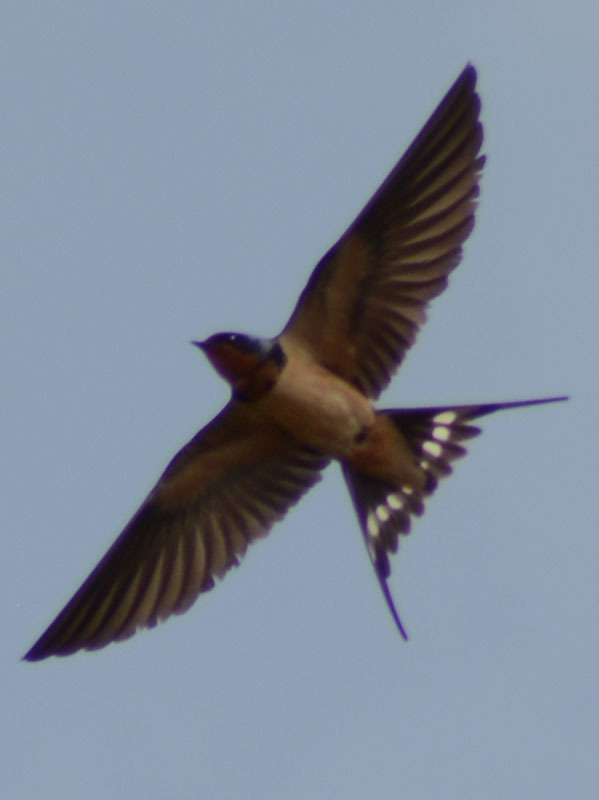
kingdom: Animalia
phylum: Chordata
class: Aves
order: Passeriformes
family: Hirundinidae
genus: Hirundo
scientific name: Hirundo rustica
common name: Barn swallow
